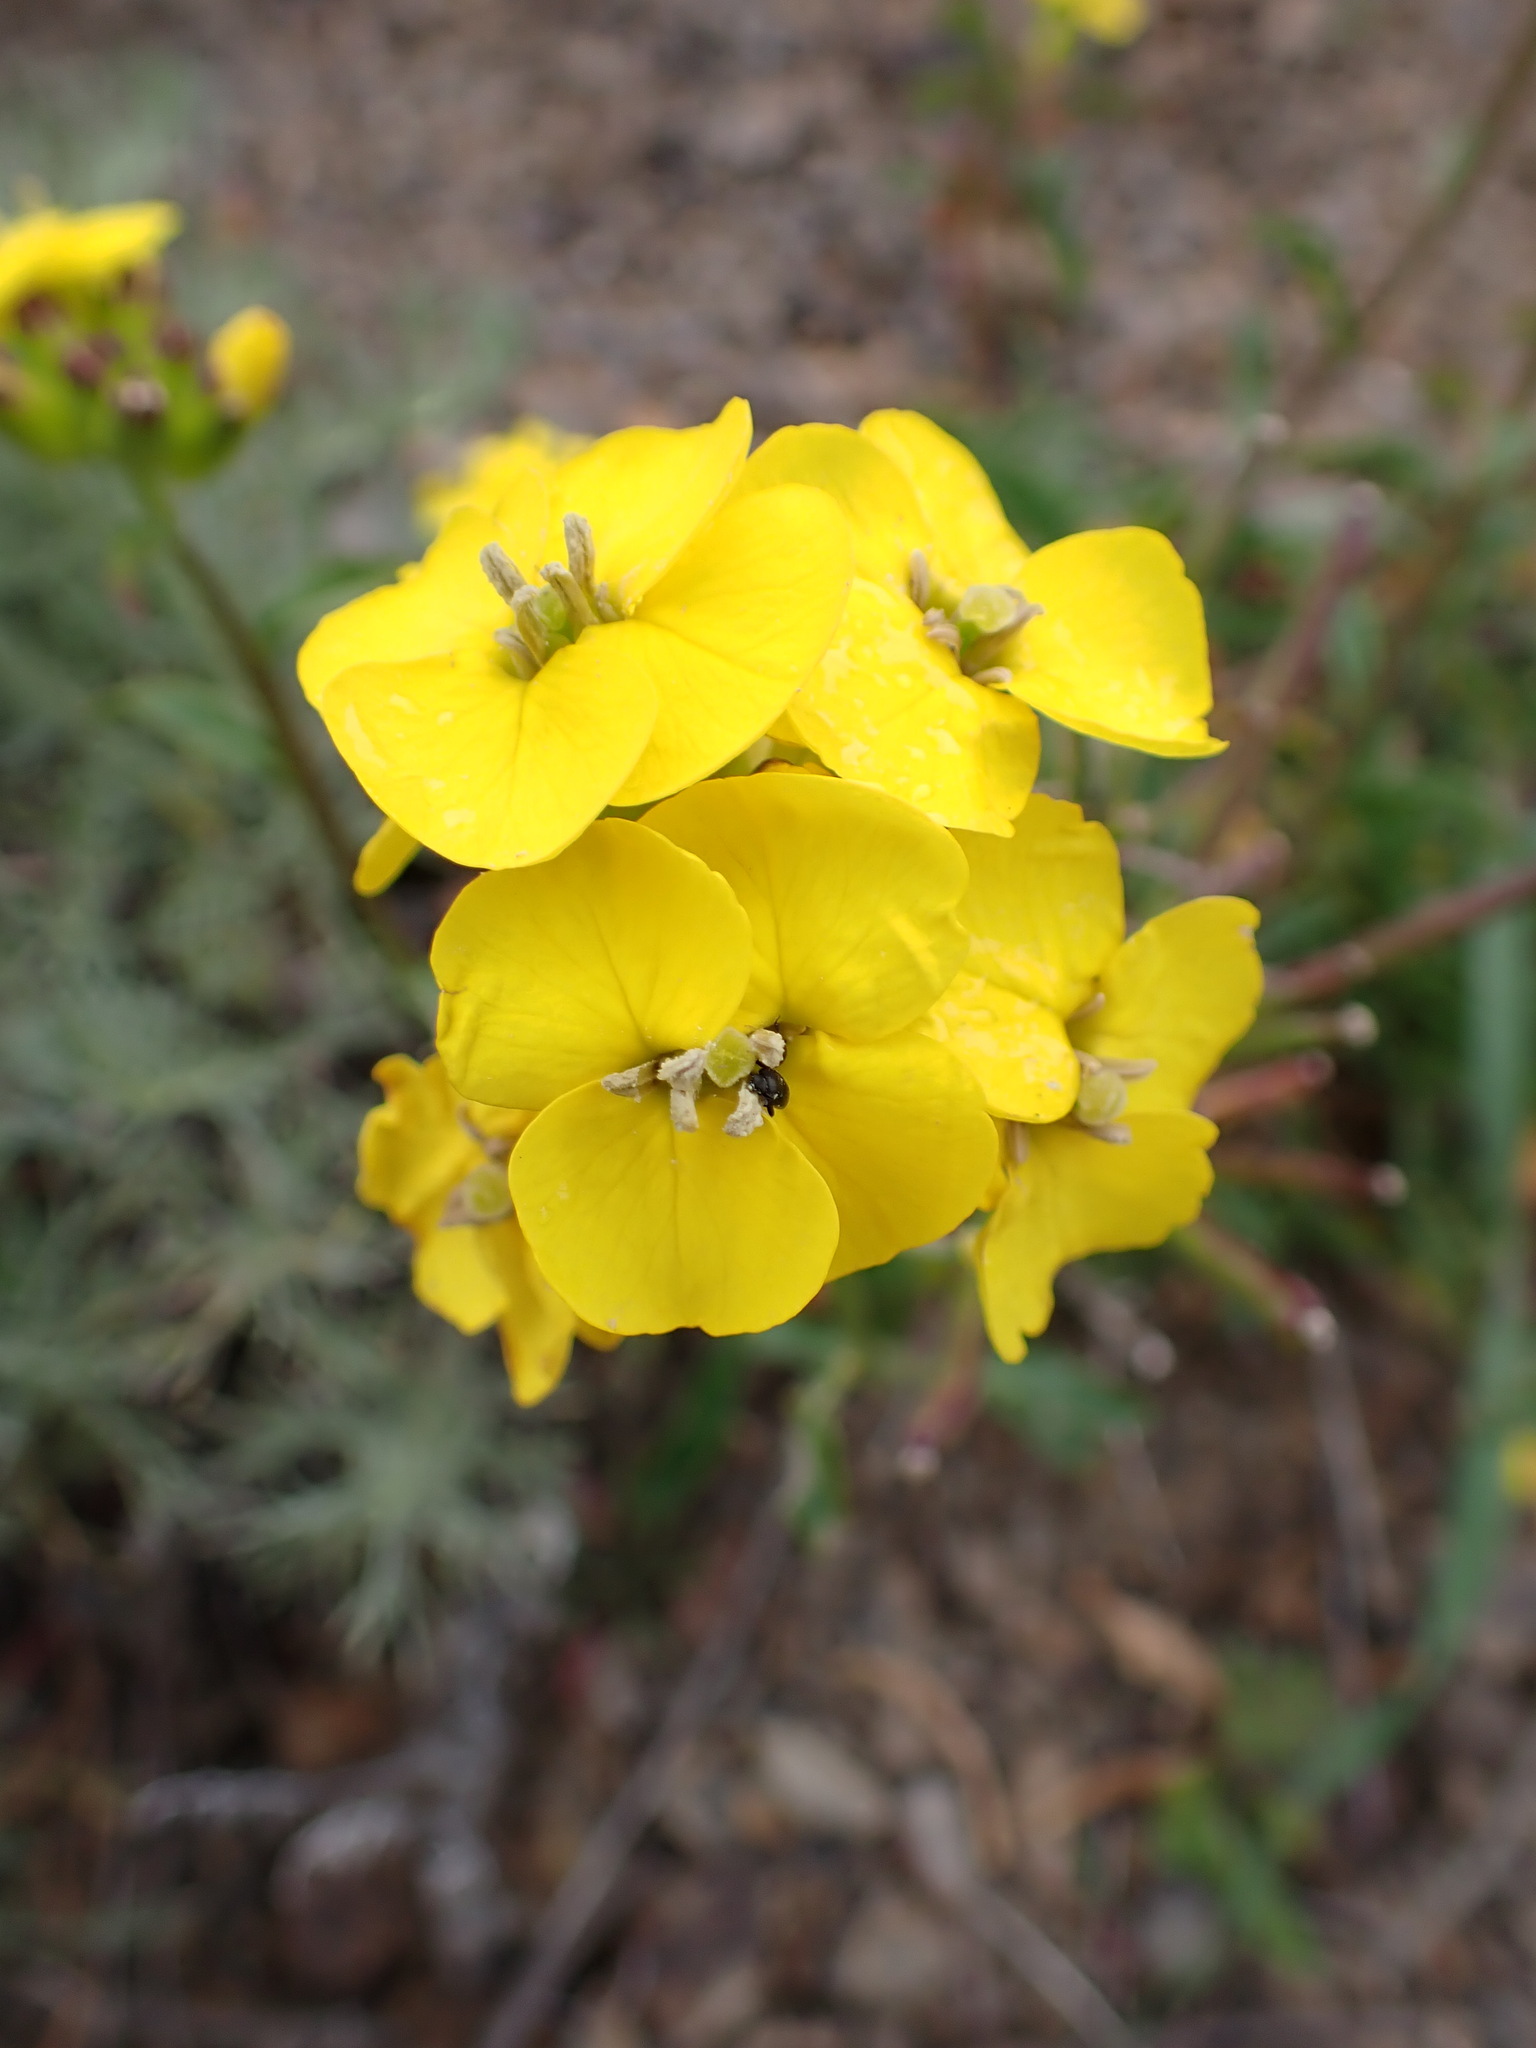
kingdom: Plantae
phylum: Tracheophyta
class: Magnoliopsida
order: Brassicales
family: Brassicaceae
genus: Erysimum
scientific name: Erysimum franciscanum
